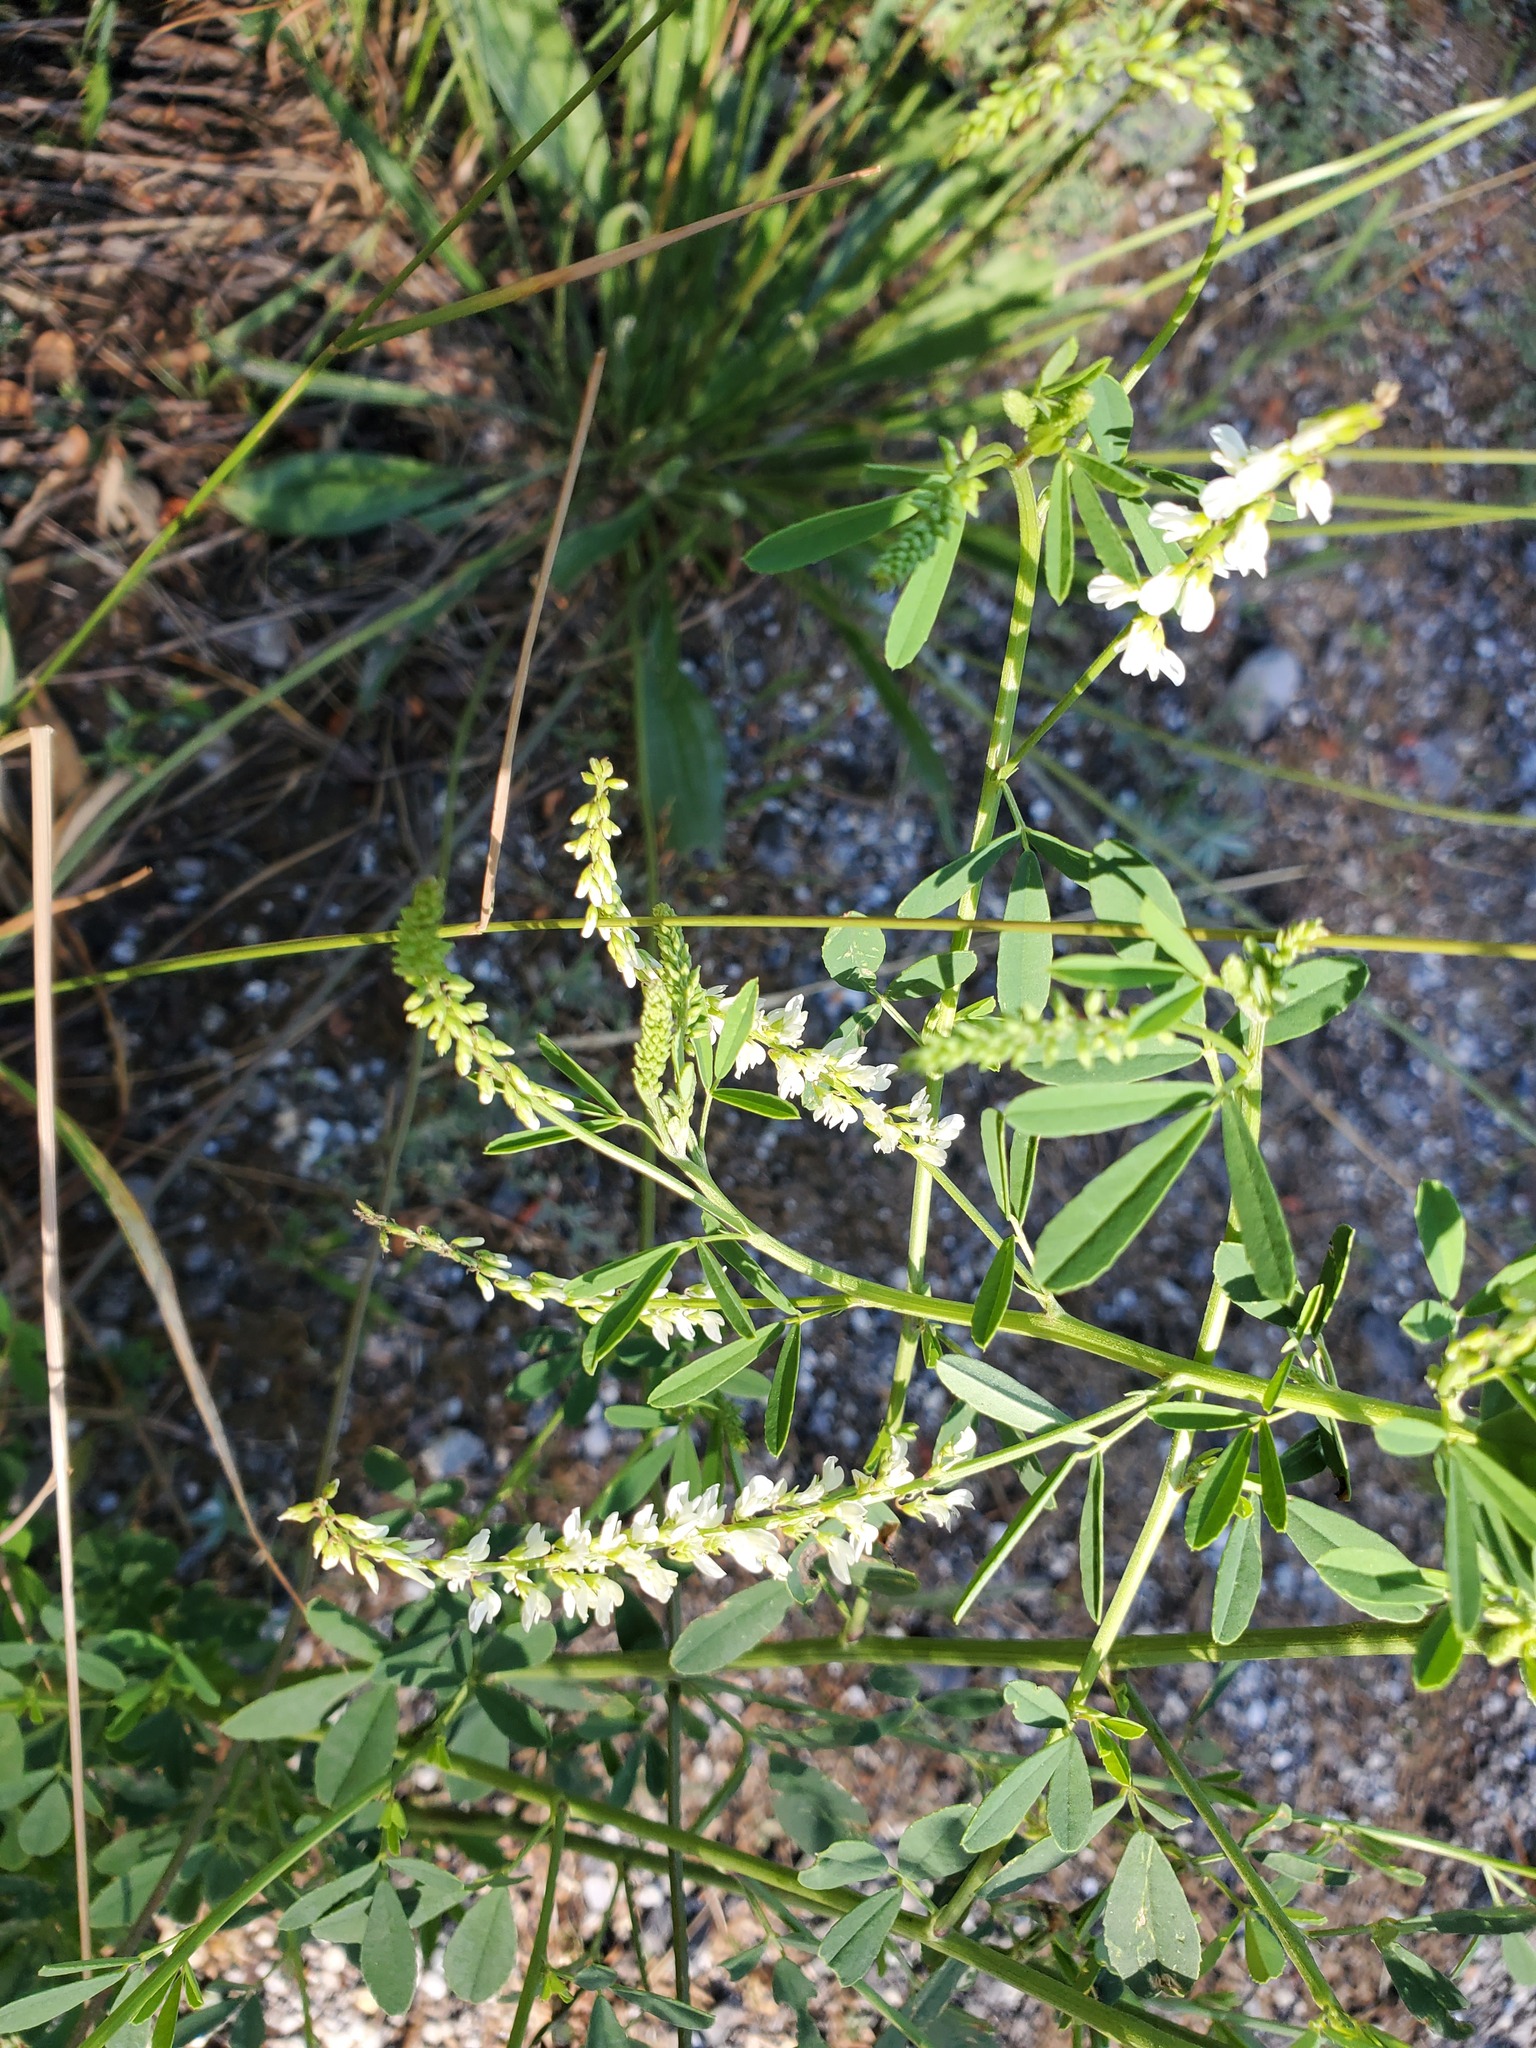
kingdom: Plantae
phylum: Tracheophyta
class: Magnoliopsida
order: Fabales
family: Fabaceae
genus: Melilotus
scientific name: Melilotus albus
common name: White melilot
